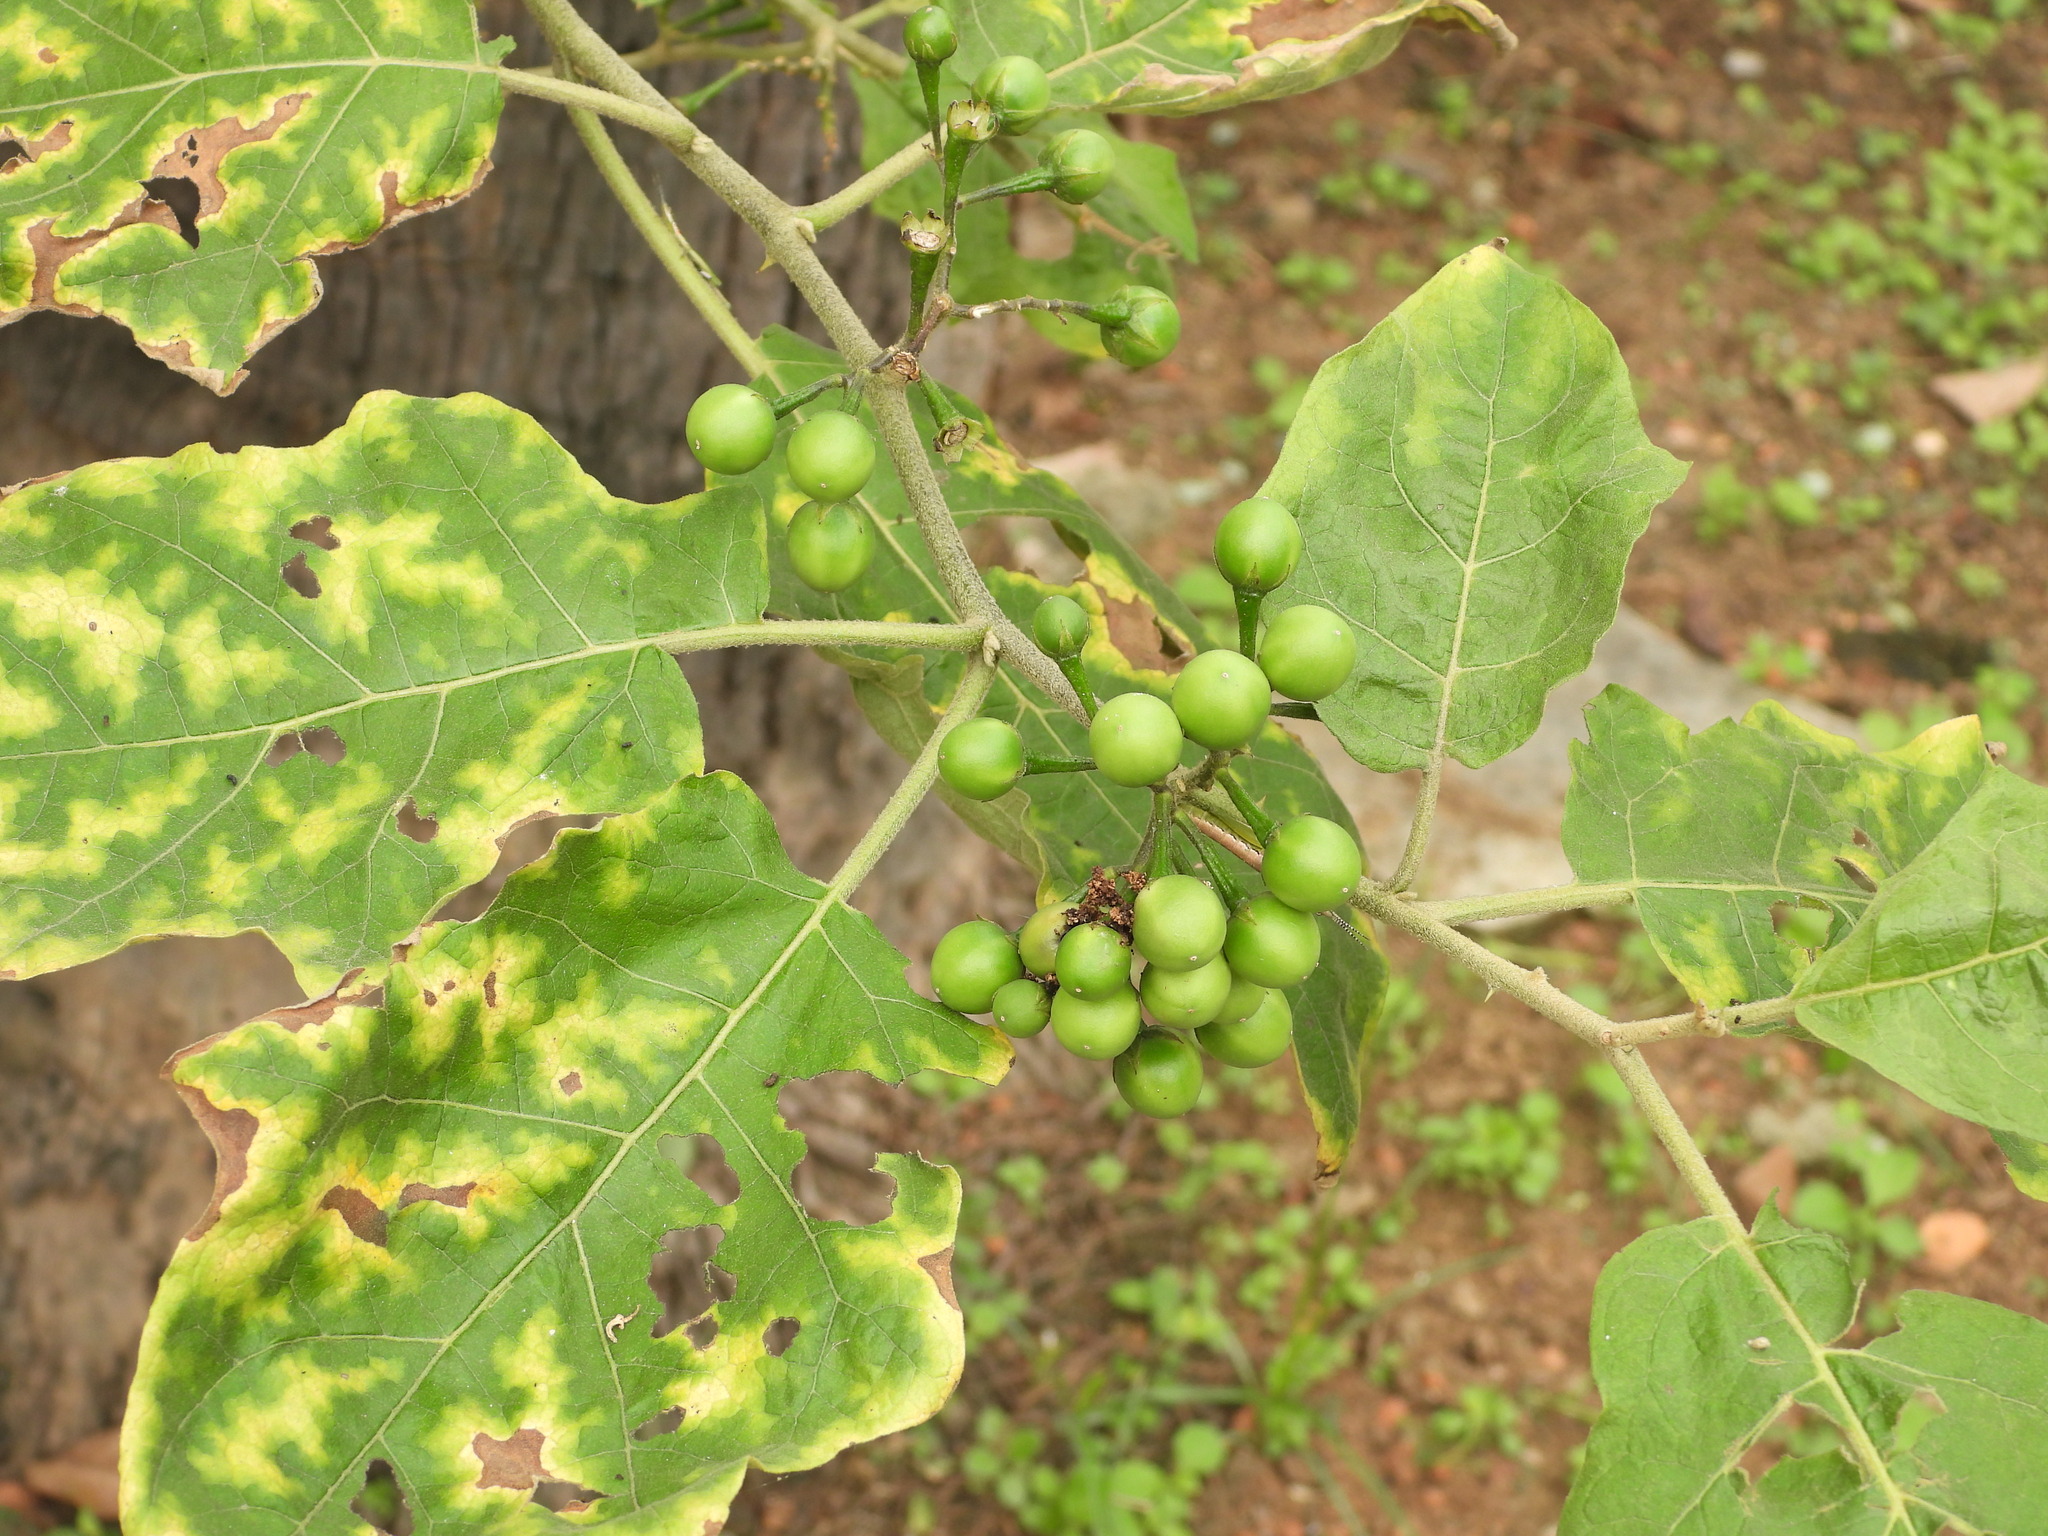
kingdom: Plantae
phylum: Tracheophyta
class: Magnoliopsida
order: Solanales
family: Solanaceae
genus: Solanum
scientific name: Solanum torvum
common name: Turkey berry
